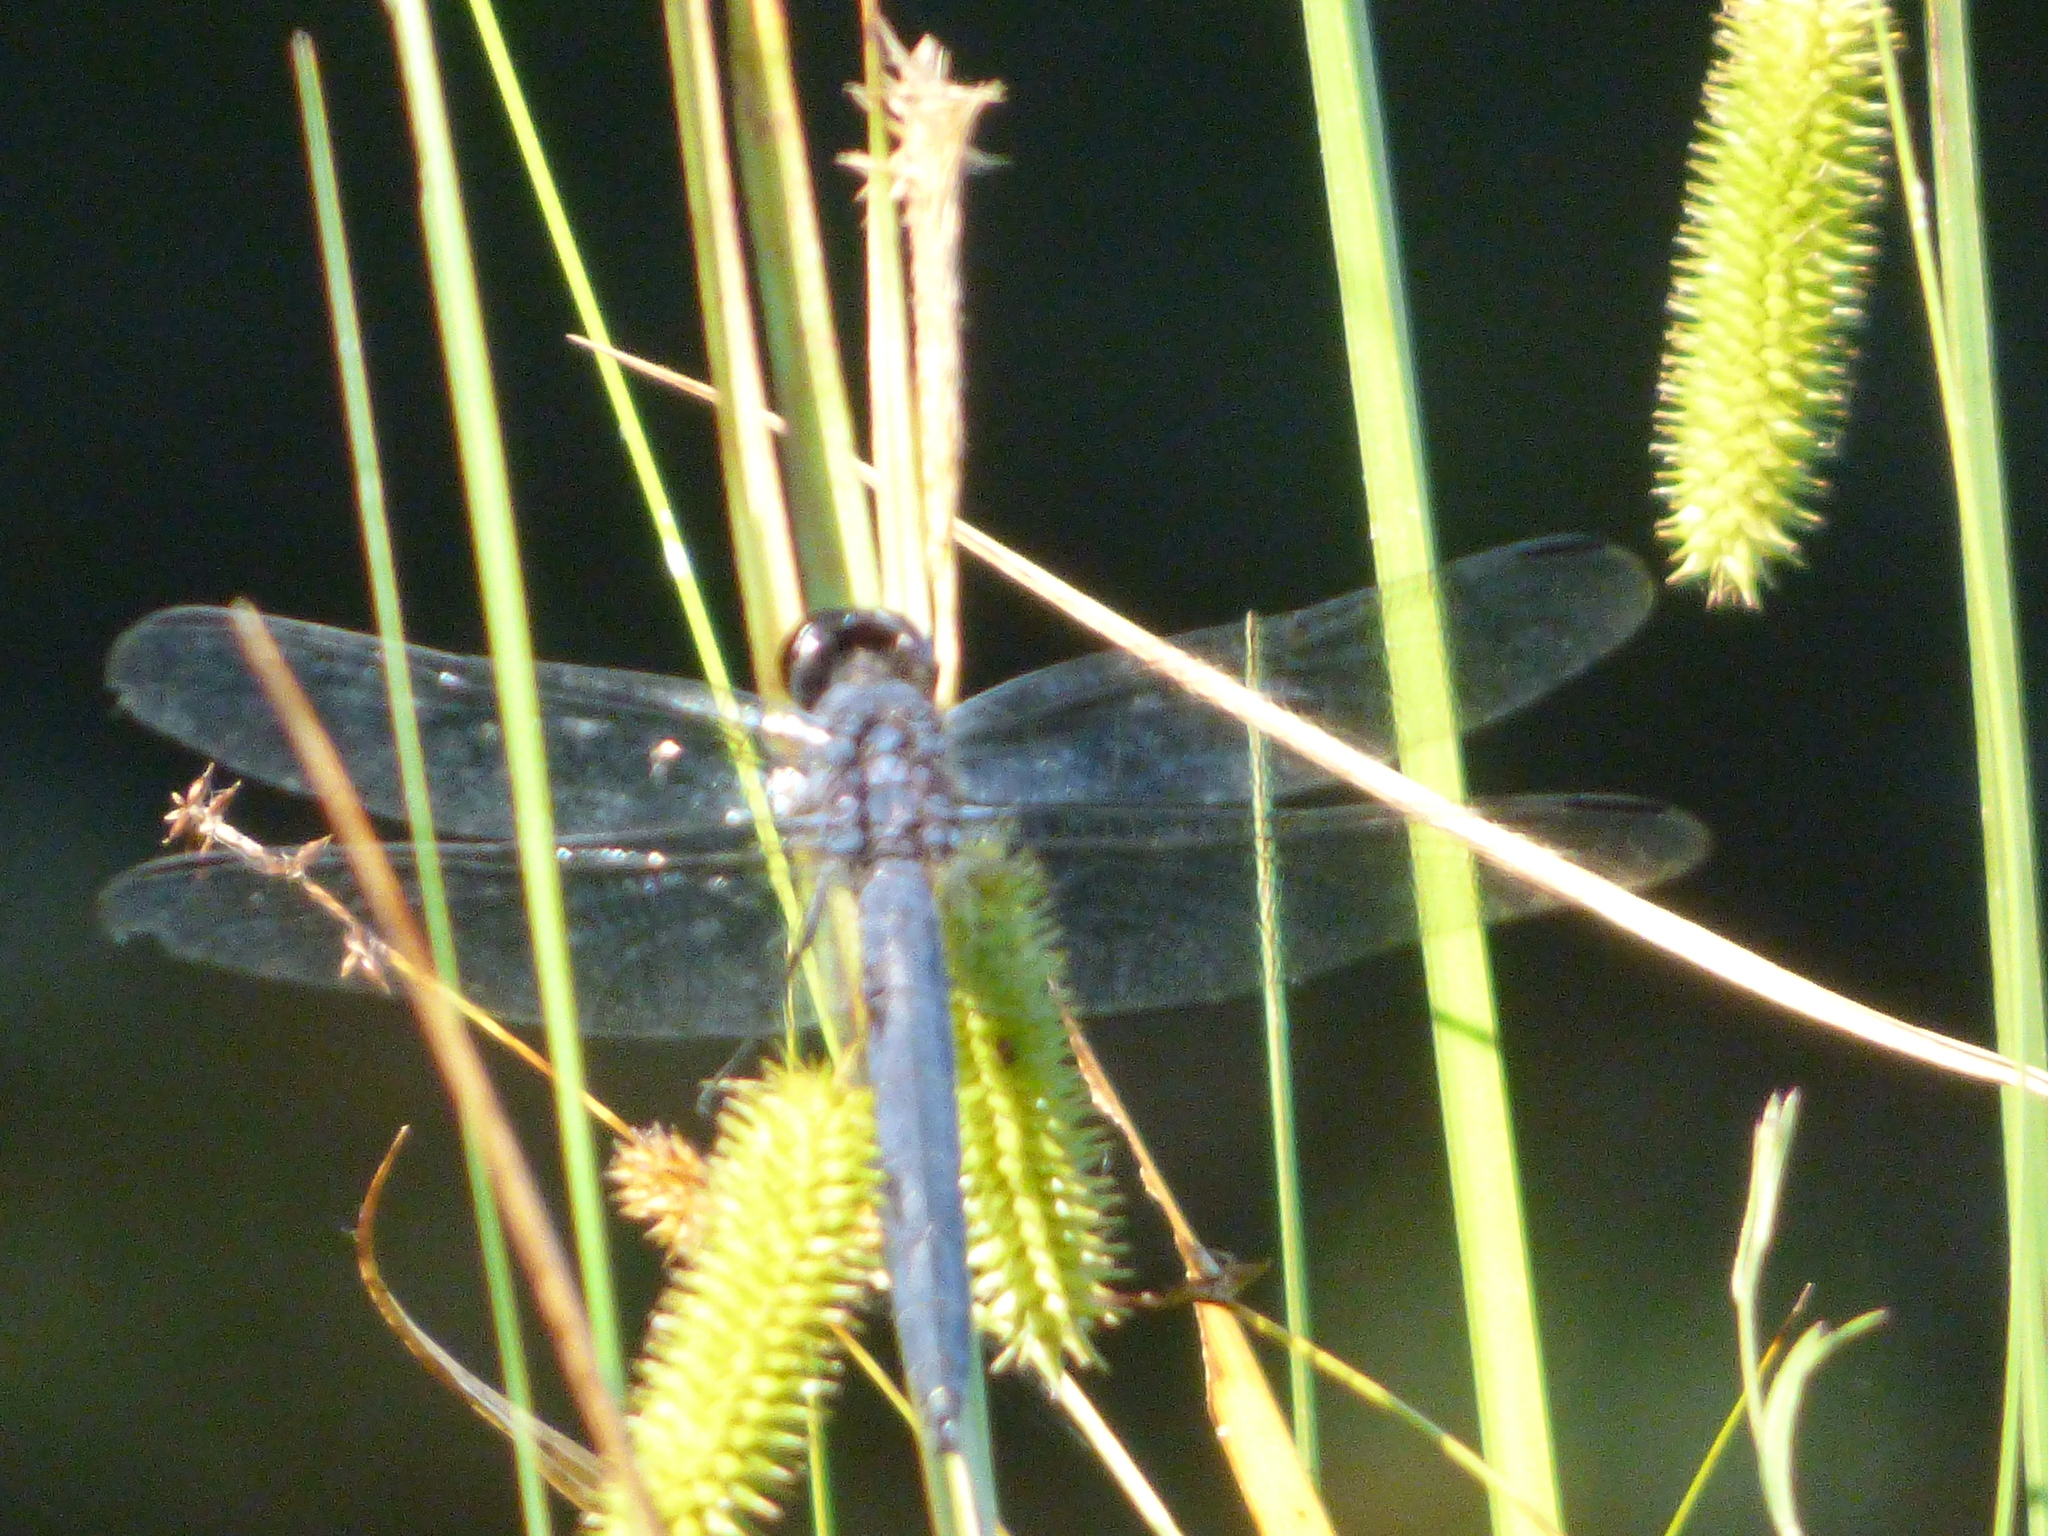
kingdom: Animalia
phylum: Arthropoda
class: Insecta
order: Odonata
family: Libellulidae
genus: Libellula
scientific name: Libellula incesta
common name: Slaty skimmer
